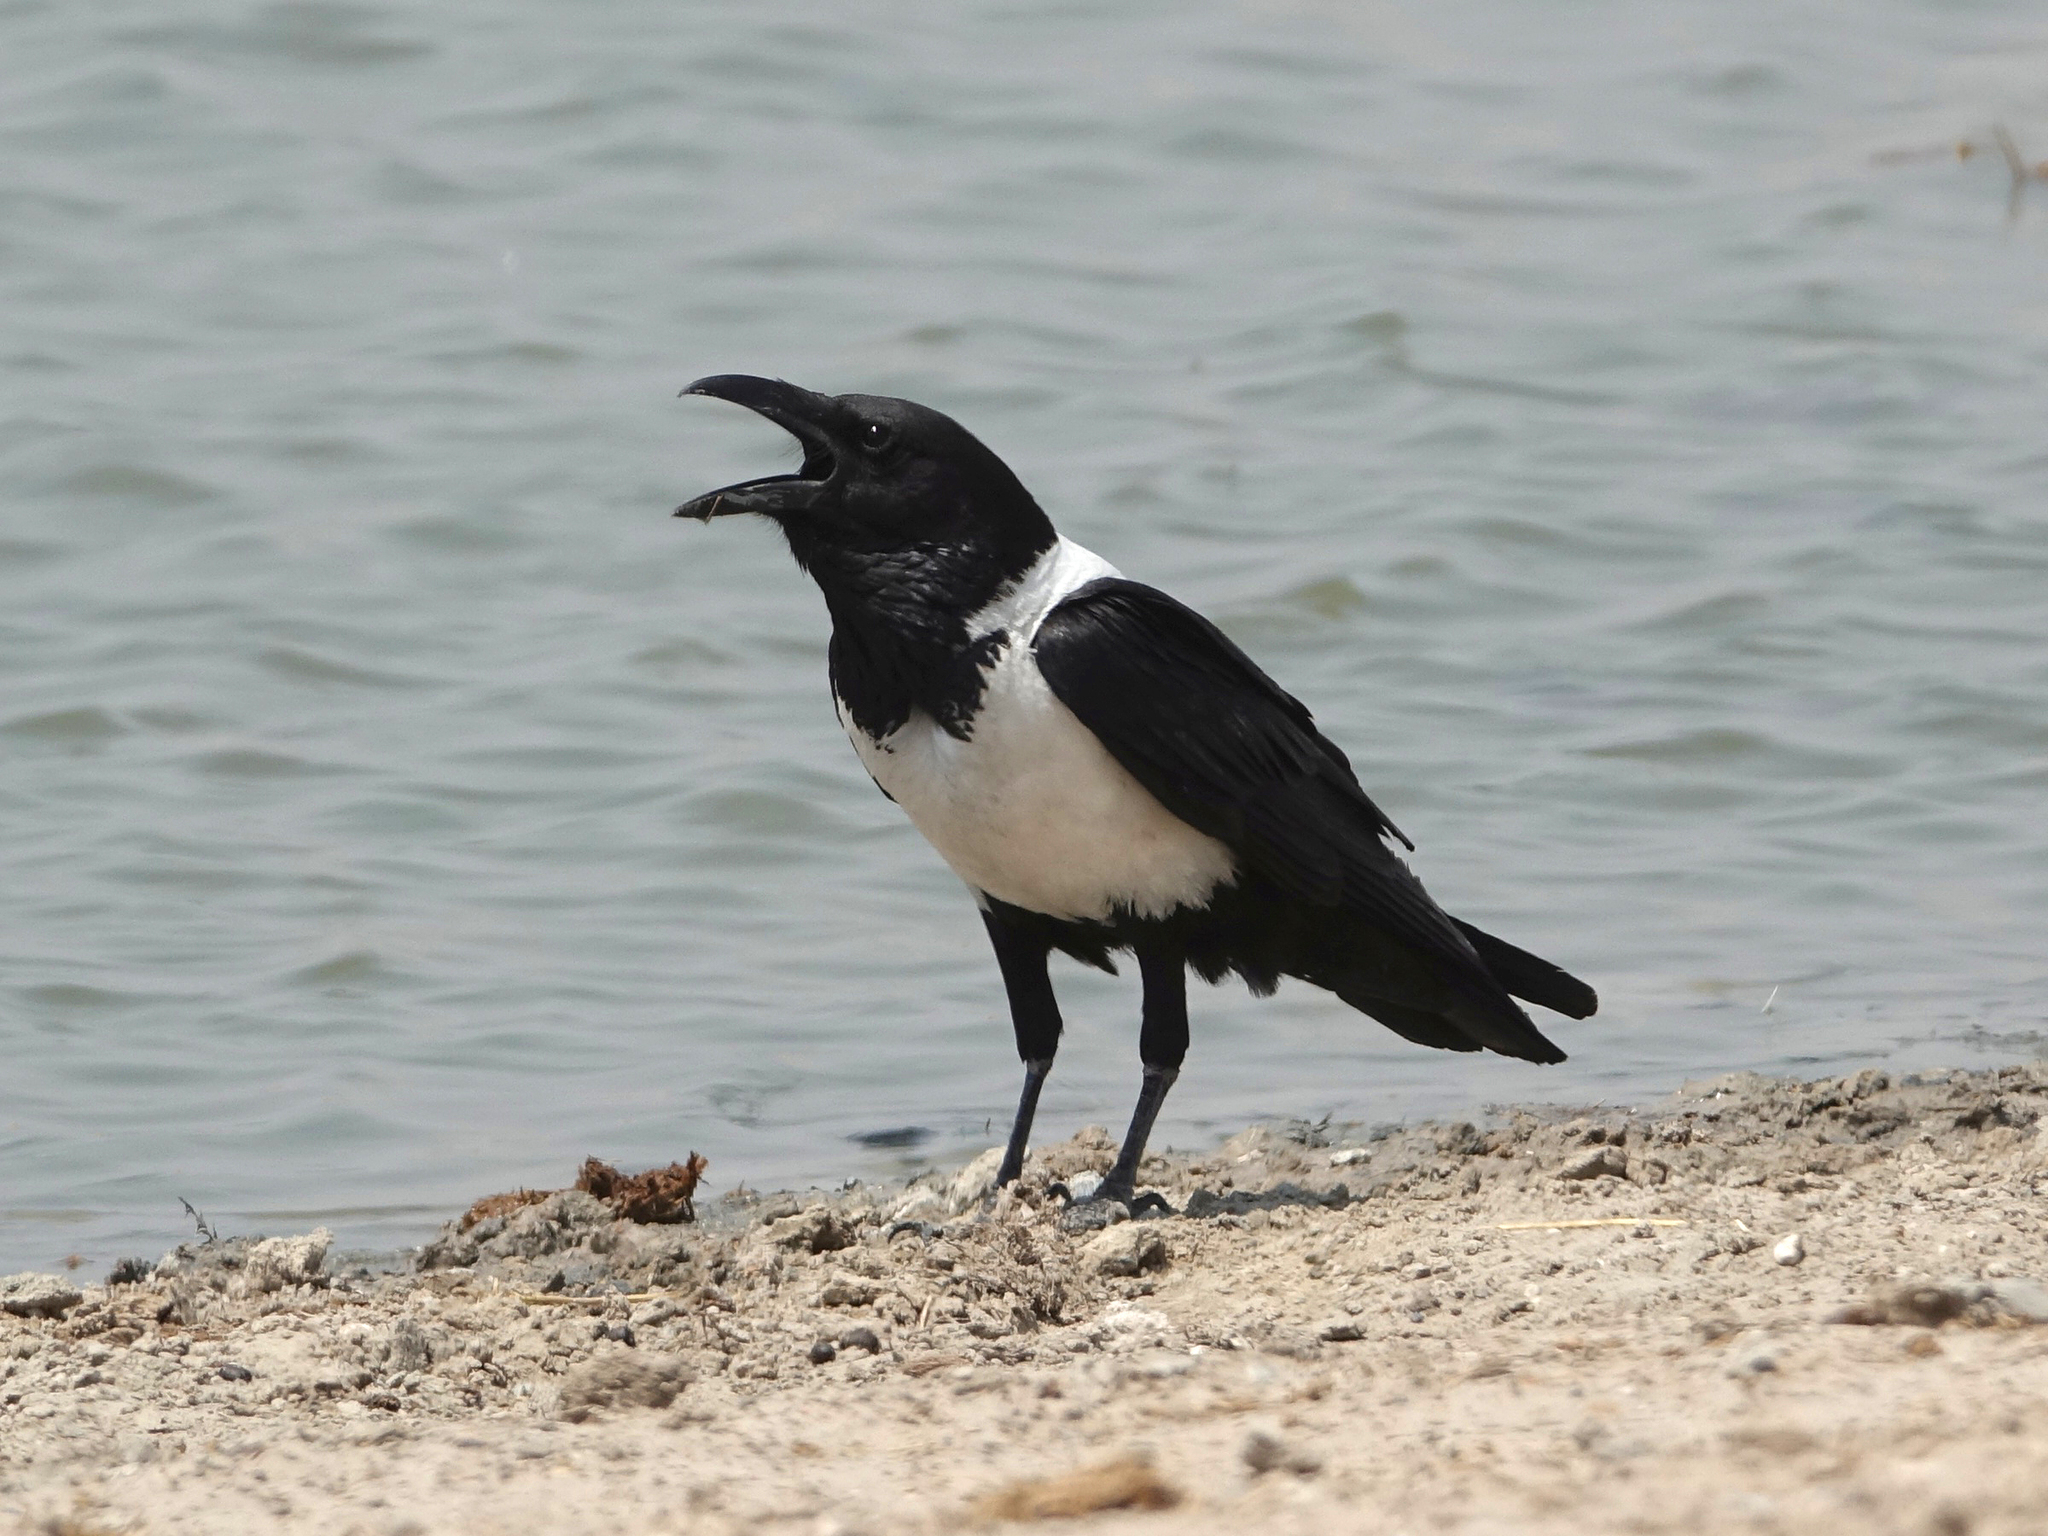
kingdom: Animalia
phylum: Chordata
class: Aves
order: Passeriformes
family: Corvidae
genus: Corvus
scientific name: Corvus albus
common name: Pied crow
